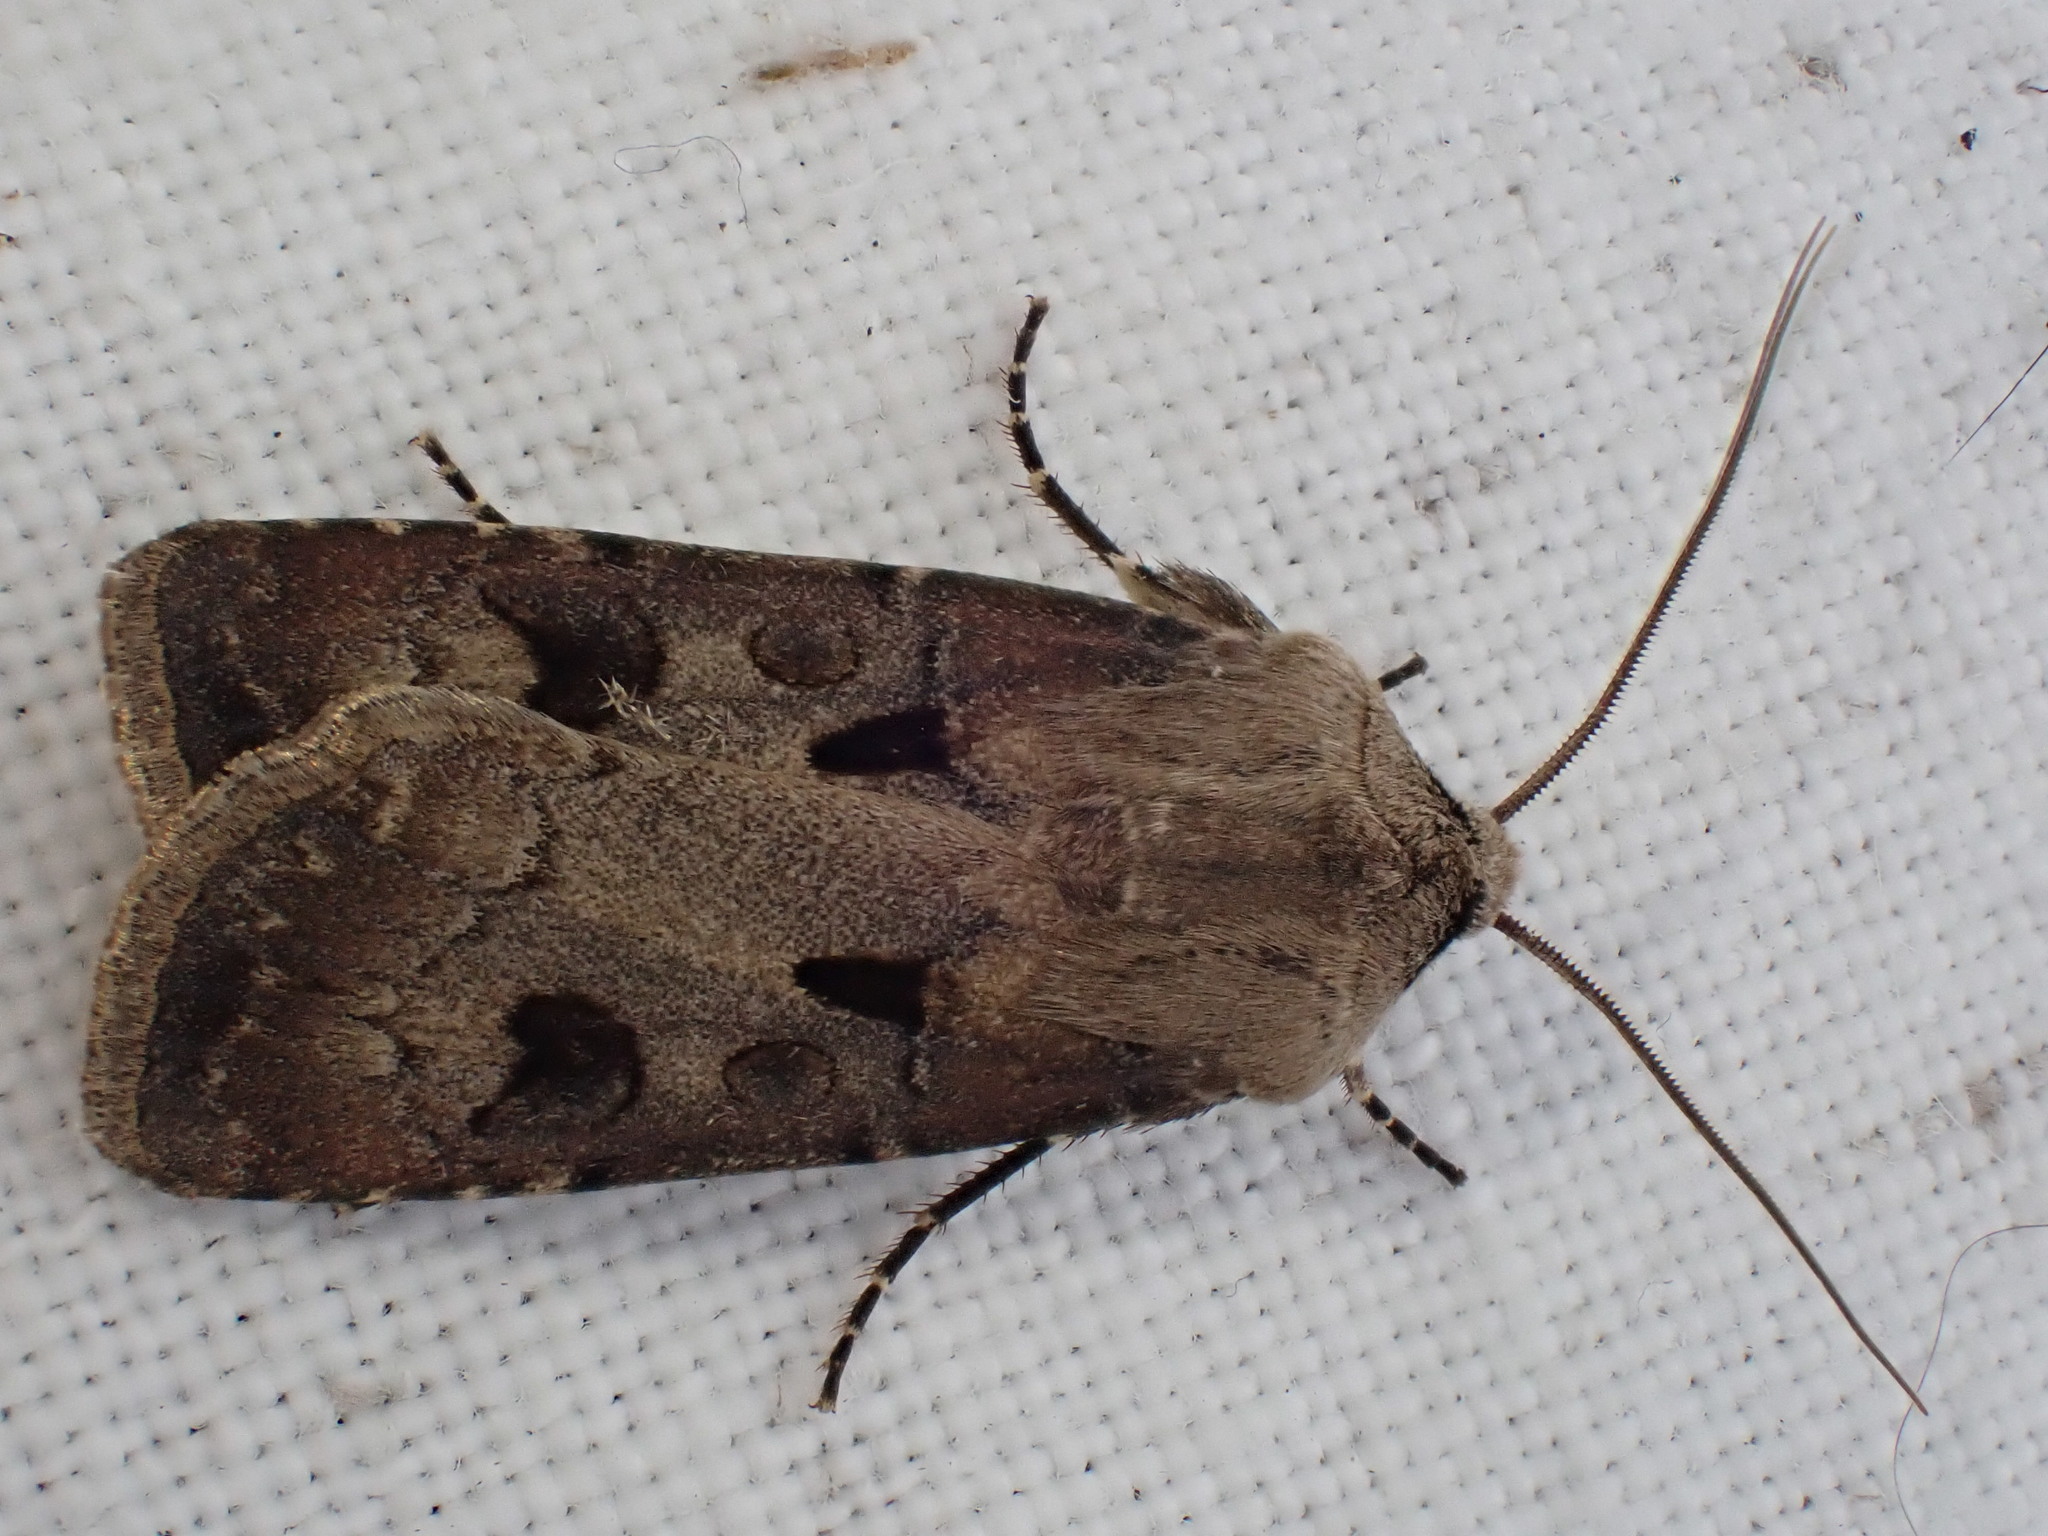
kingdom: Animalia
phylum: Arthropoda
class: Insecta
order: Lepidoptera
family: Noctuidae
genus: Agrotis
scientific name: Agrotis exclamationis
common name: Heart and dart
